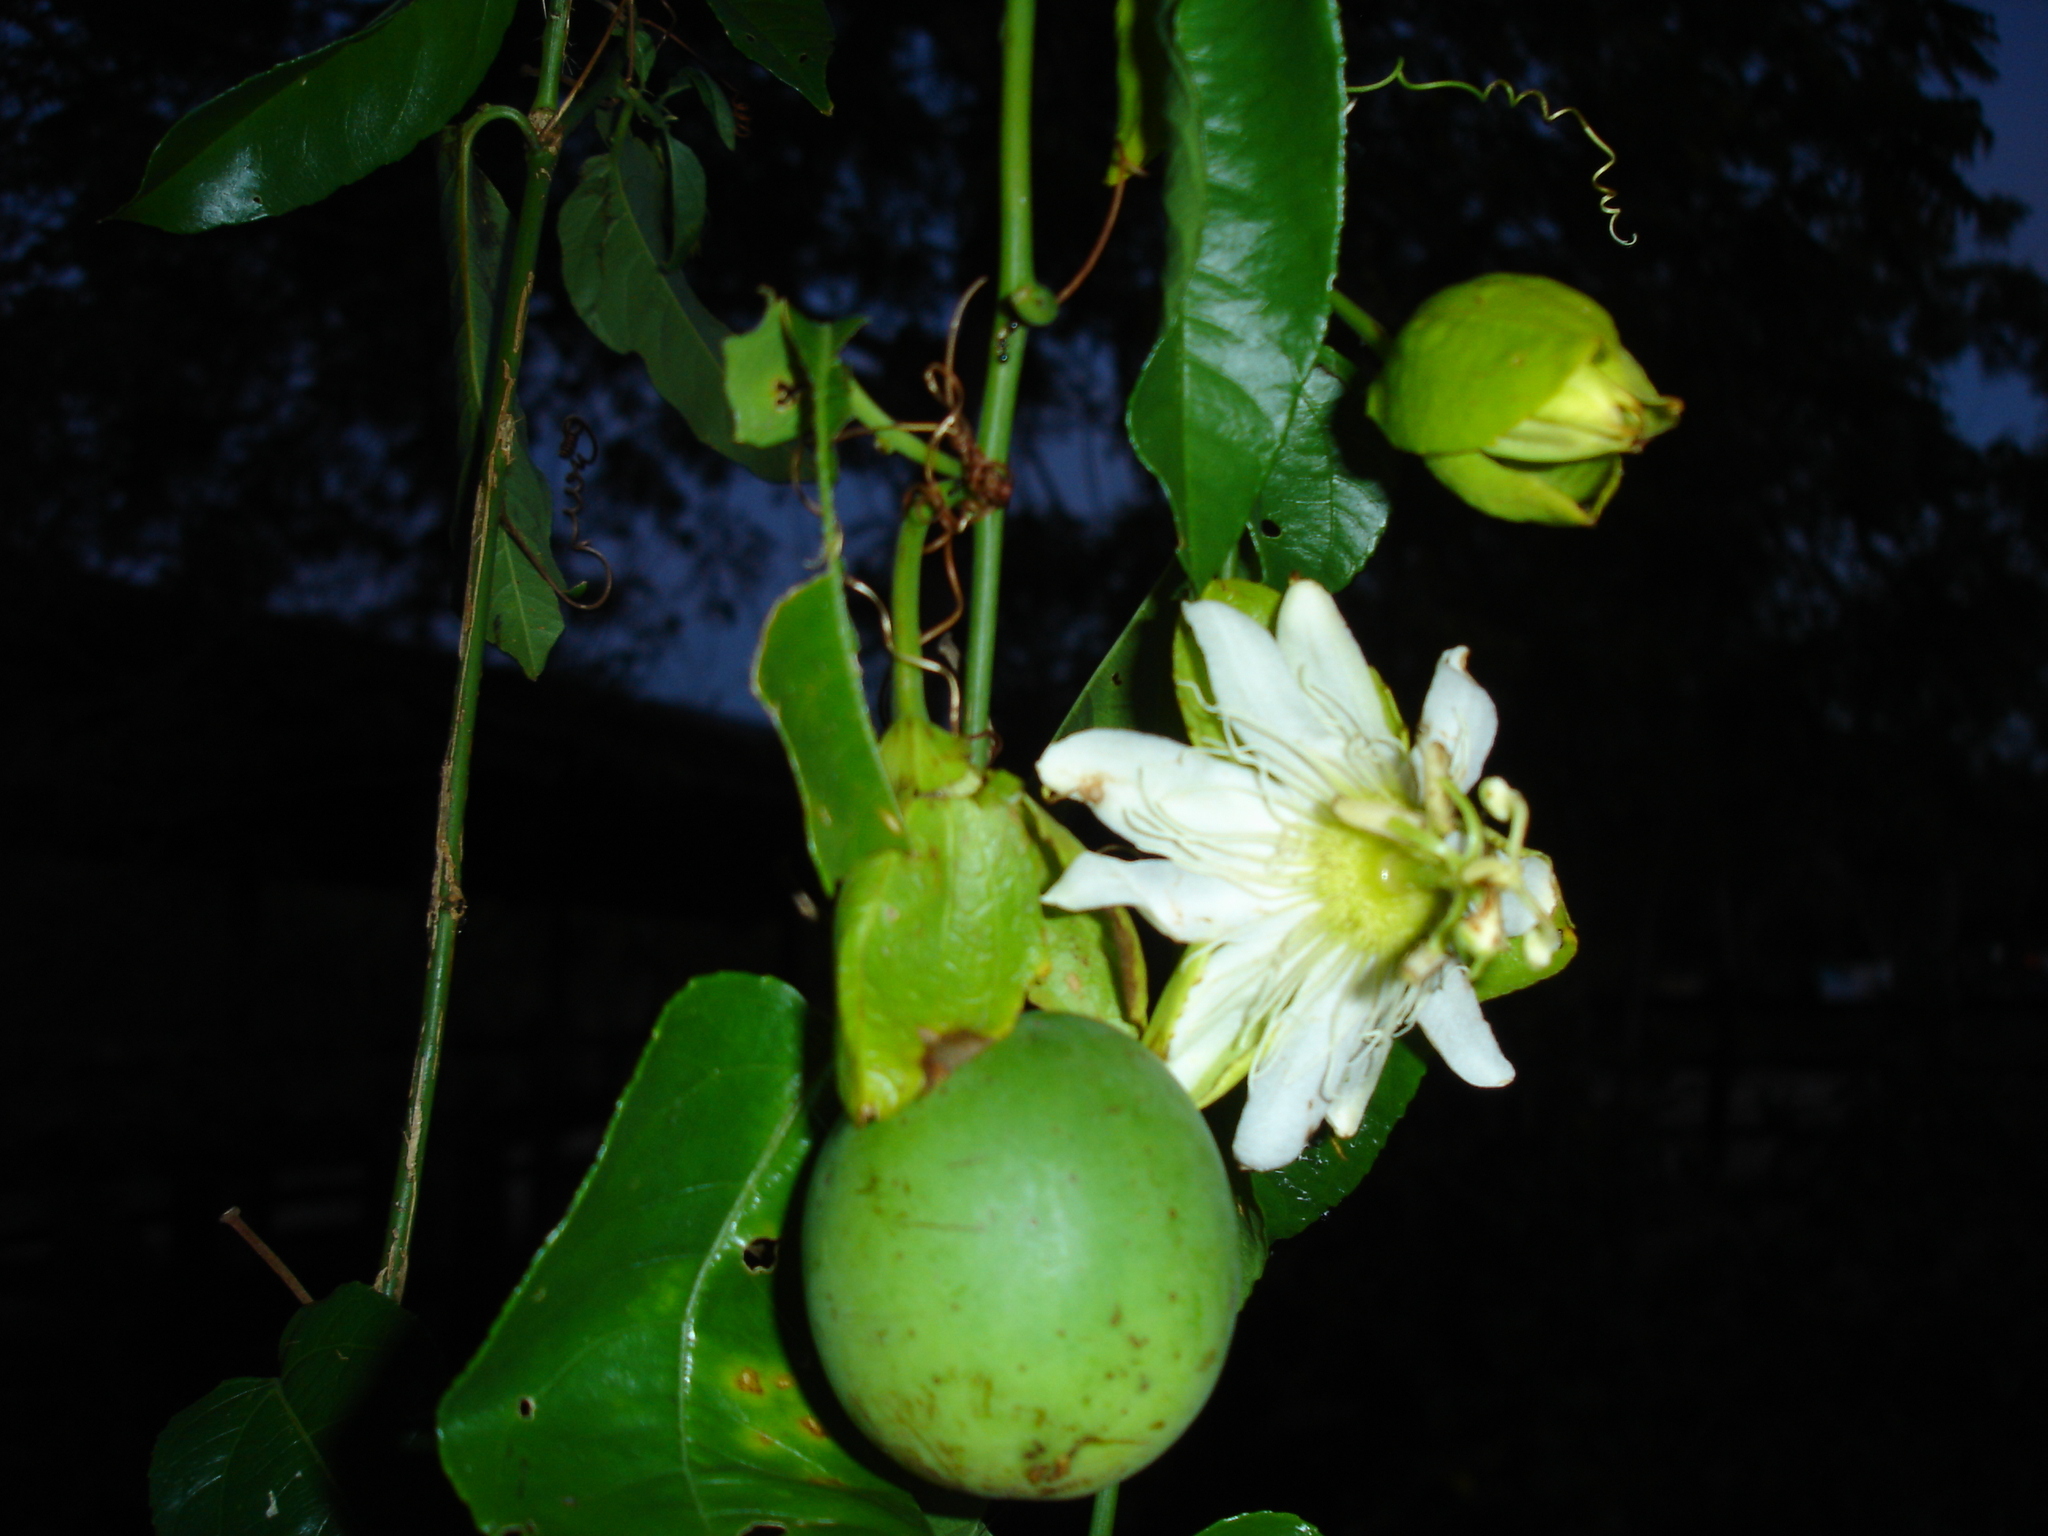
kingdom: Plantae
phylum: Tracheophyta
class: Magnoliopsida
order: Malpighiales
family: Passifloraceae
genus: Passiflora
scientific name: Passiflora guazumifolia
